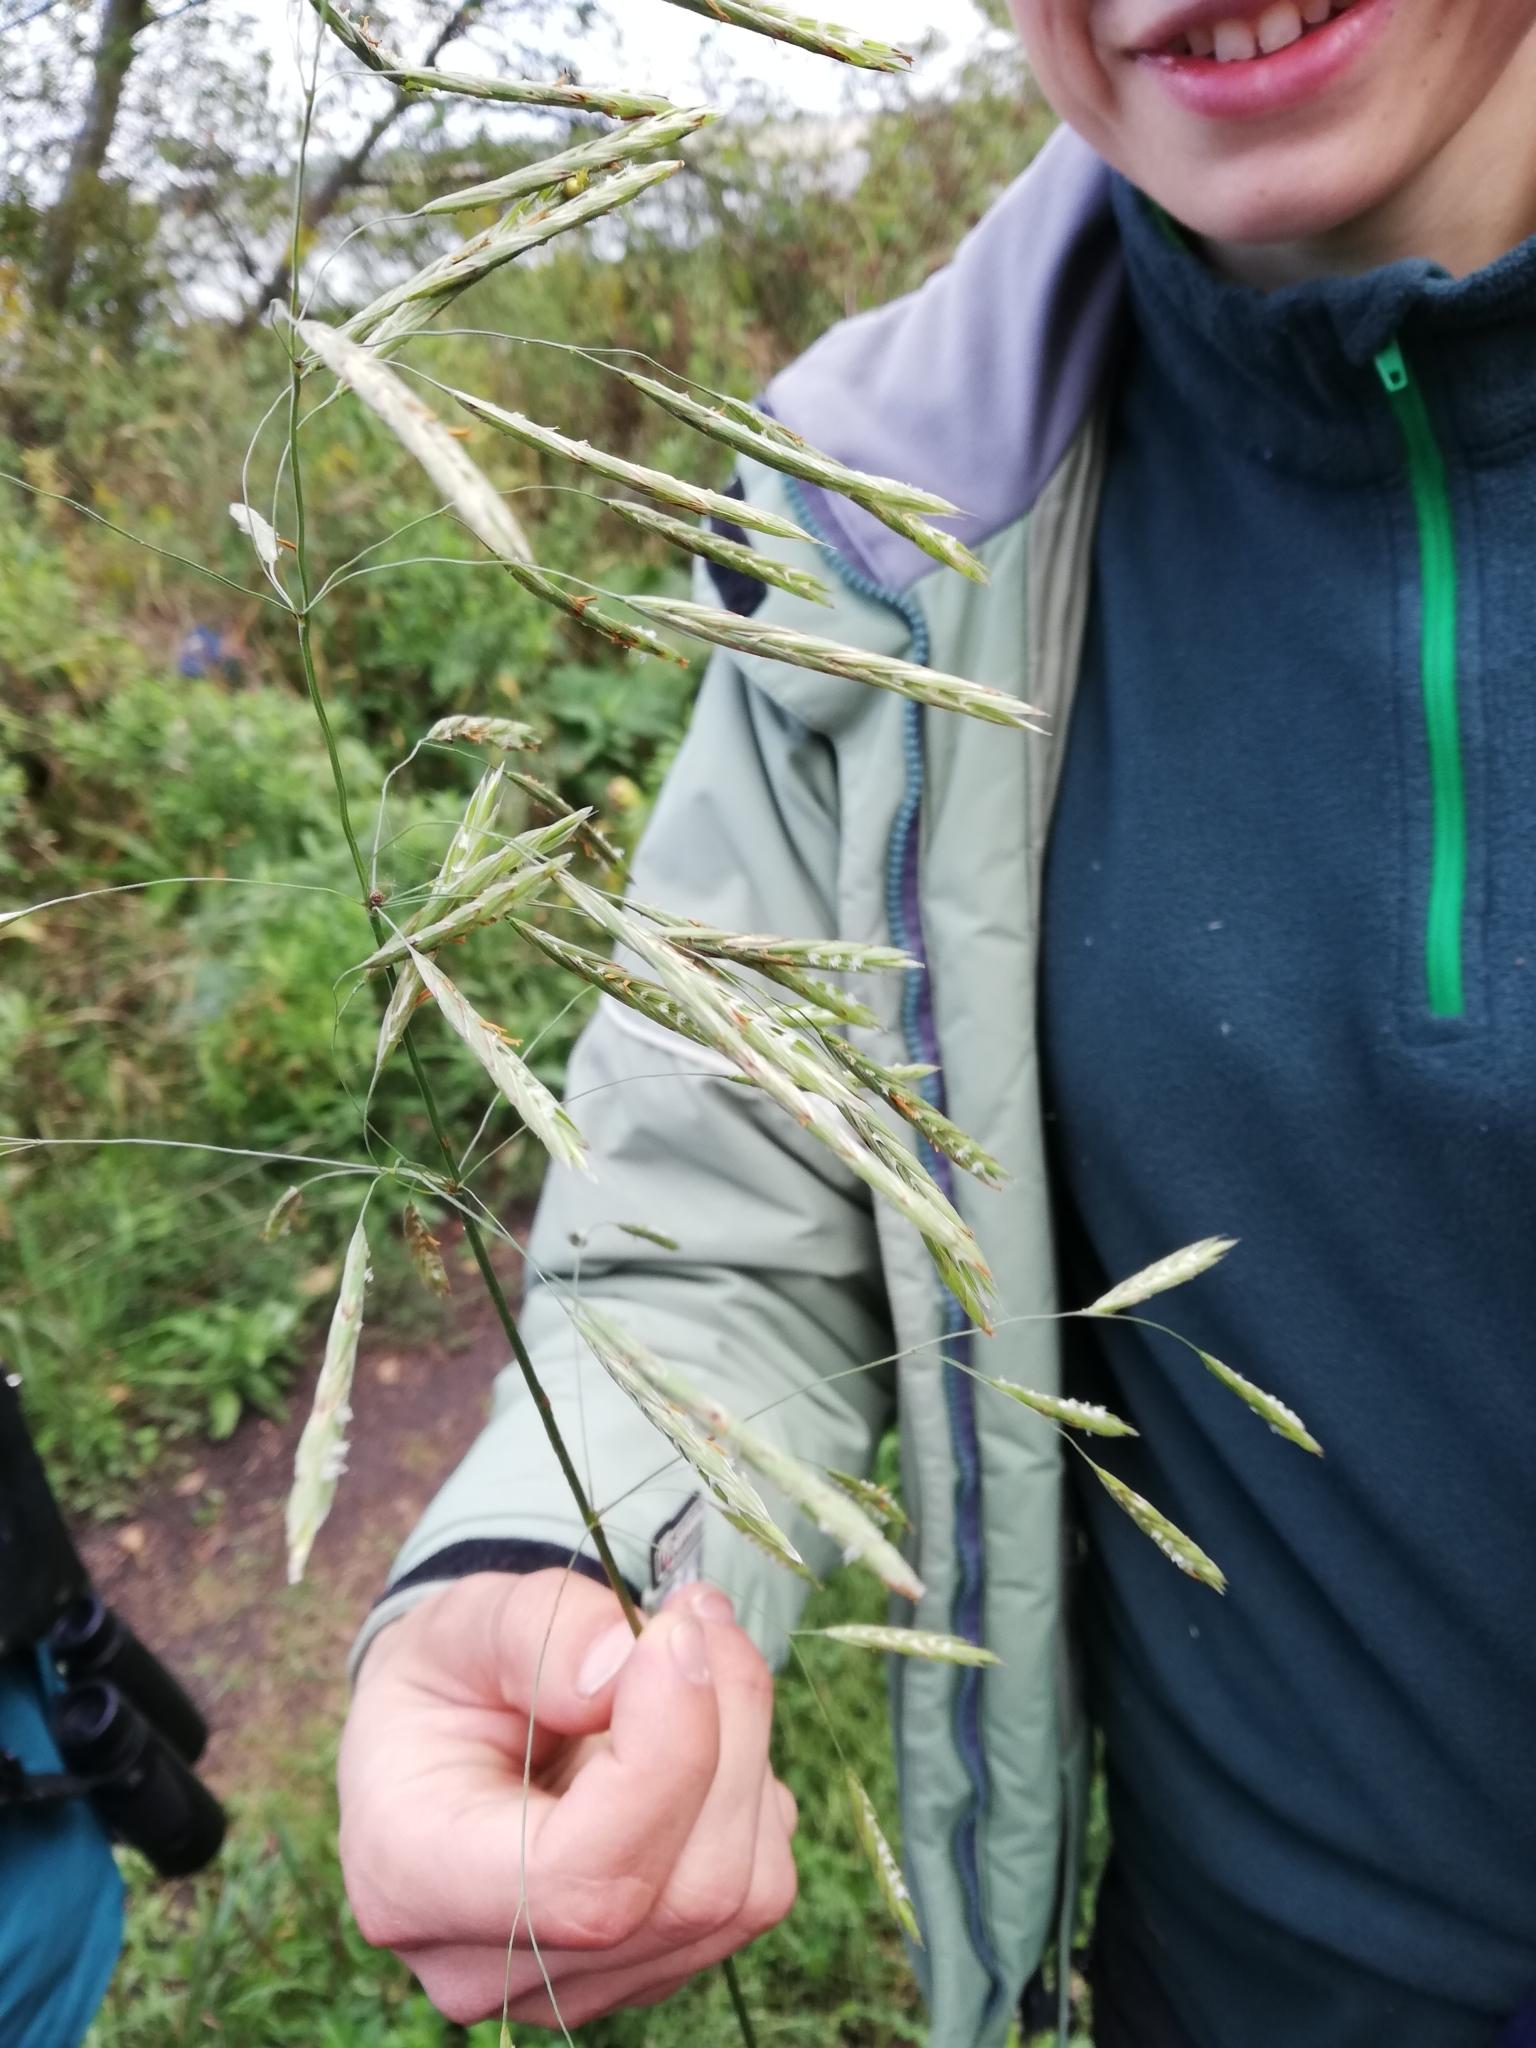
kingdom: Plantae
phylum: Tracheophyta
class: Liliopsida
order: Poales
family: Poaceae
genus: Bromus
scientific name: Bromus inermis
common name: Smooth brome
